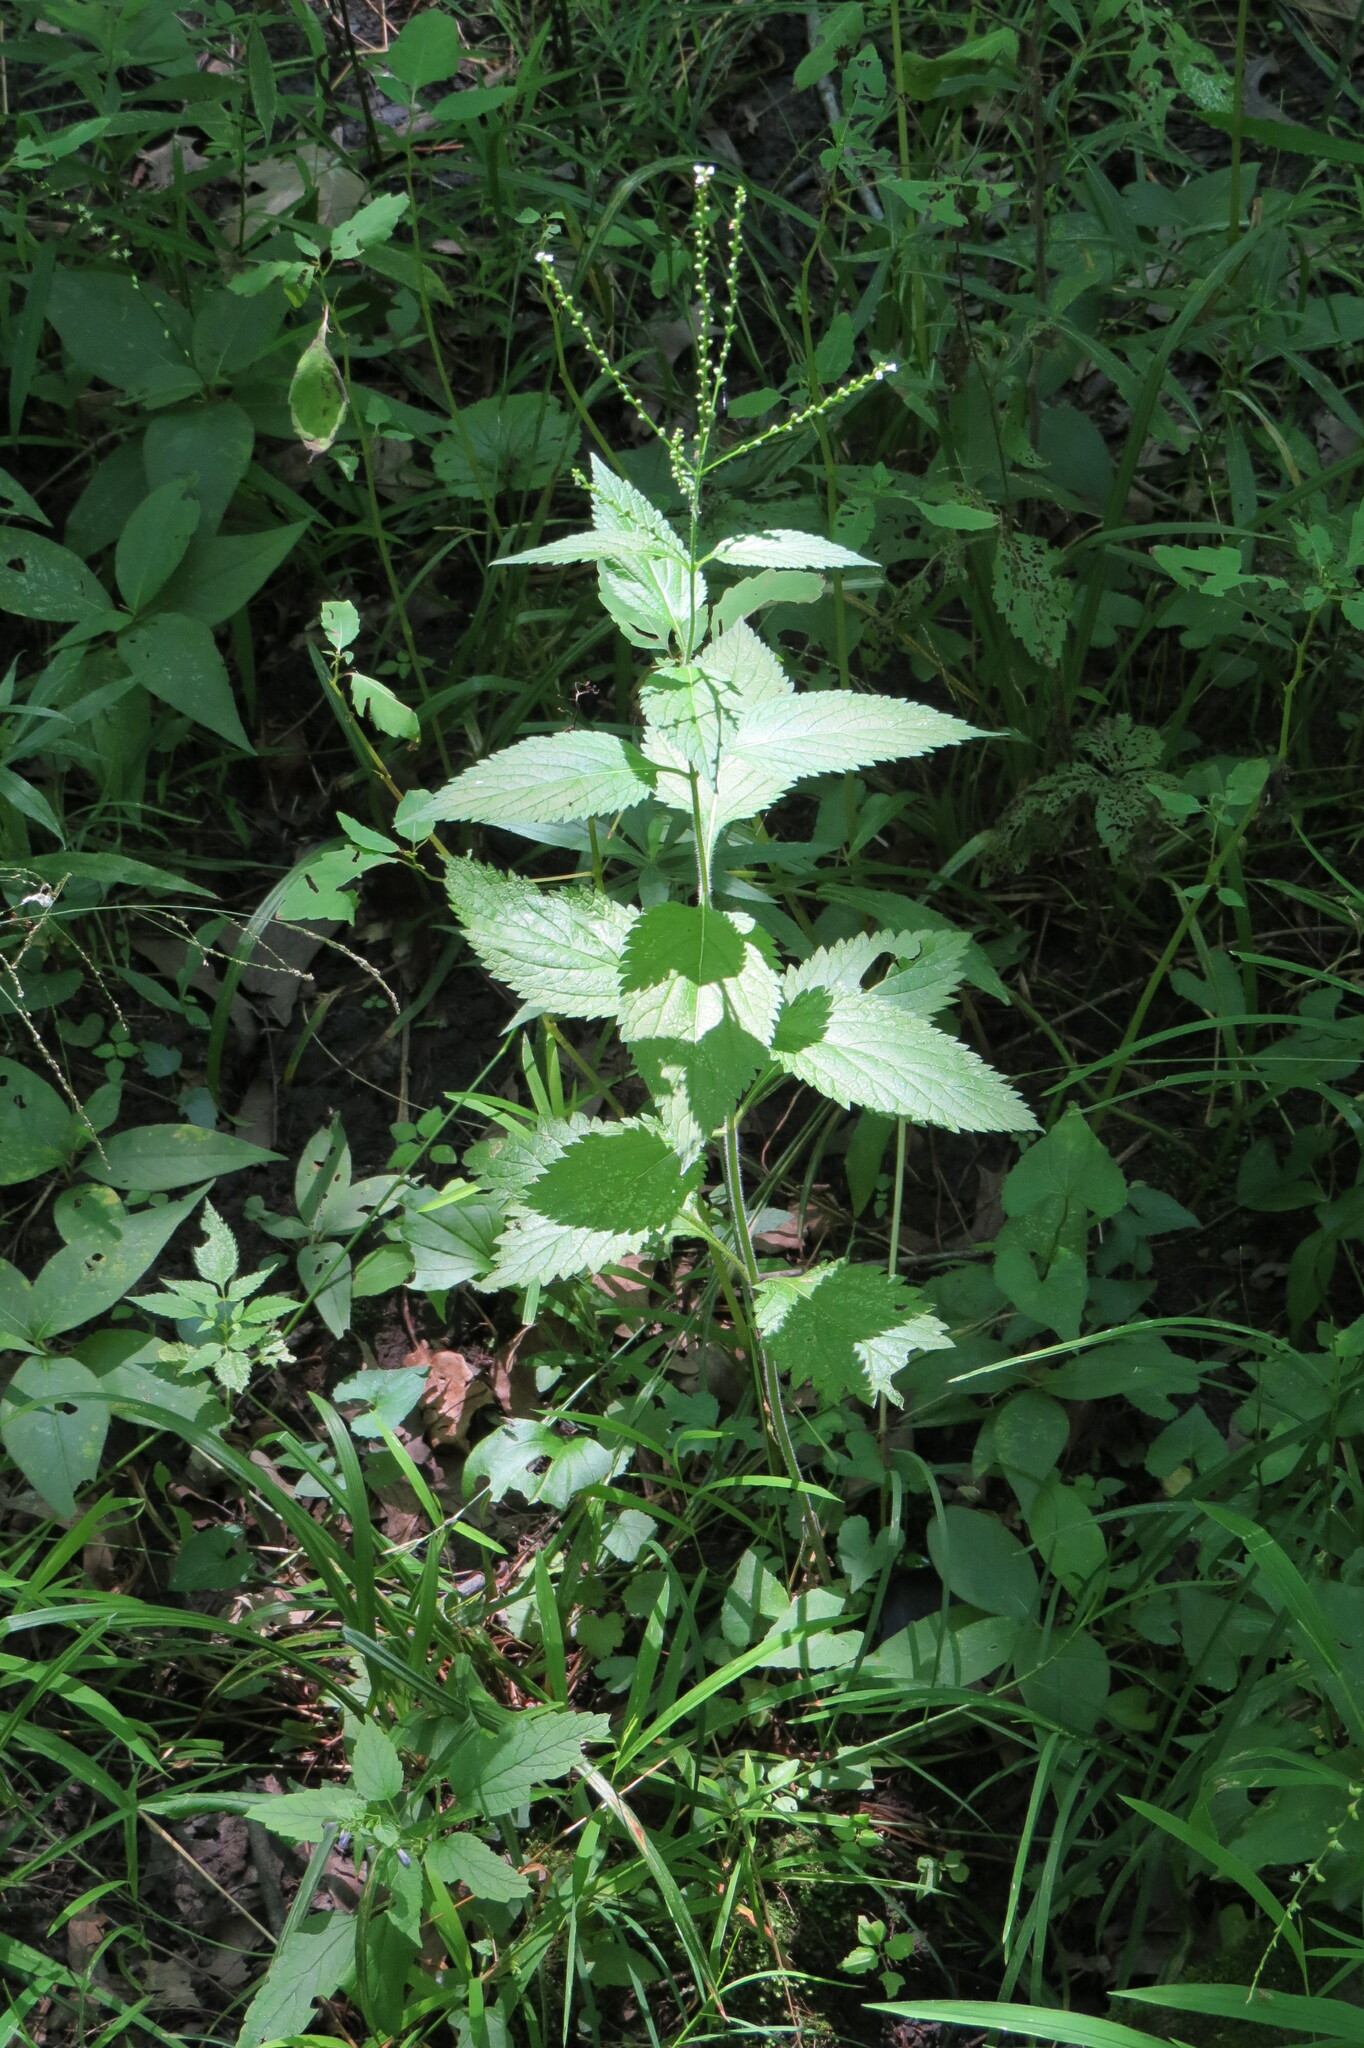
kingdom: Plantae
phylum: Tracheophyta
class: Magnoliopsida
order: Lamiales
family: Verbenaceae
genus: Verbena
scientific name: Verbena urticifolia
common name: Nettle-leaved vervain
